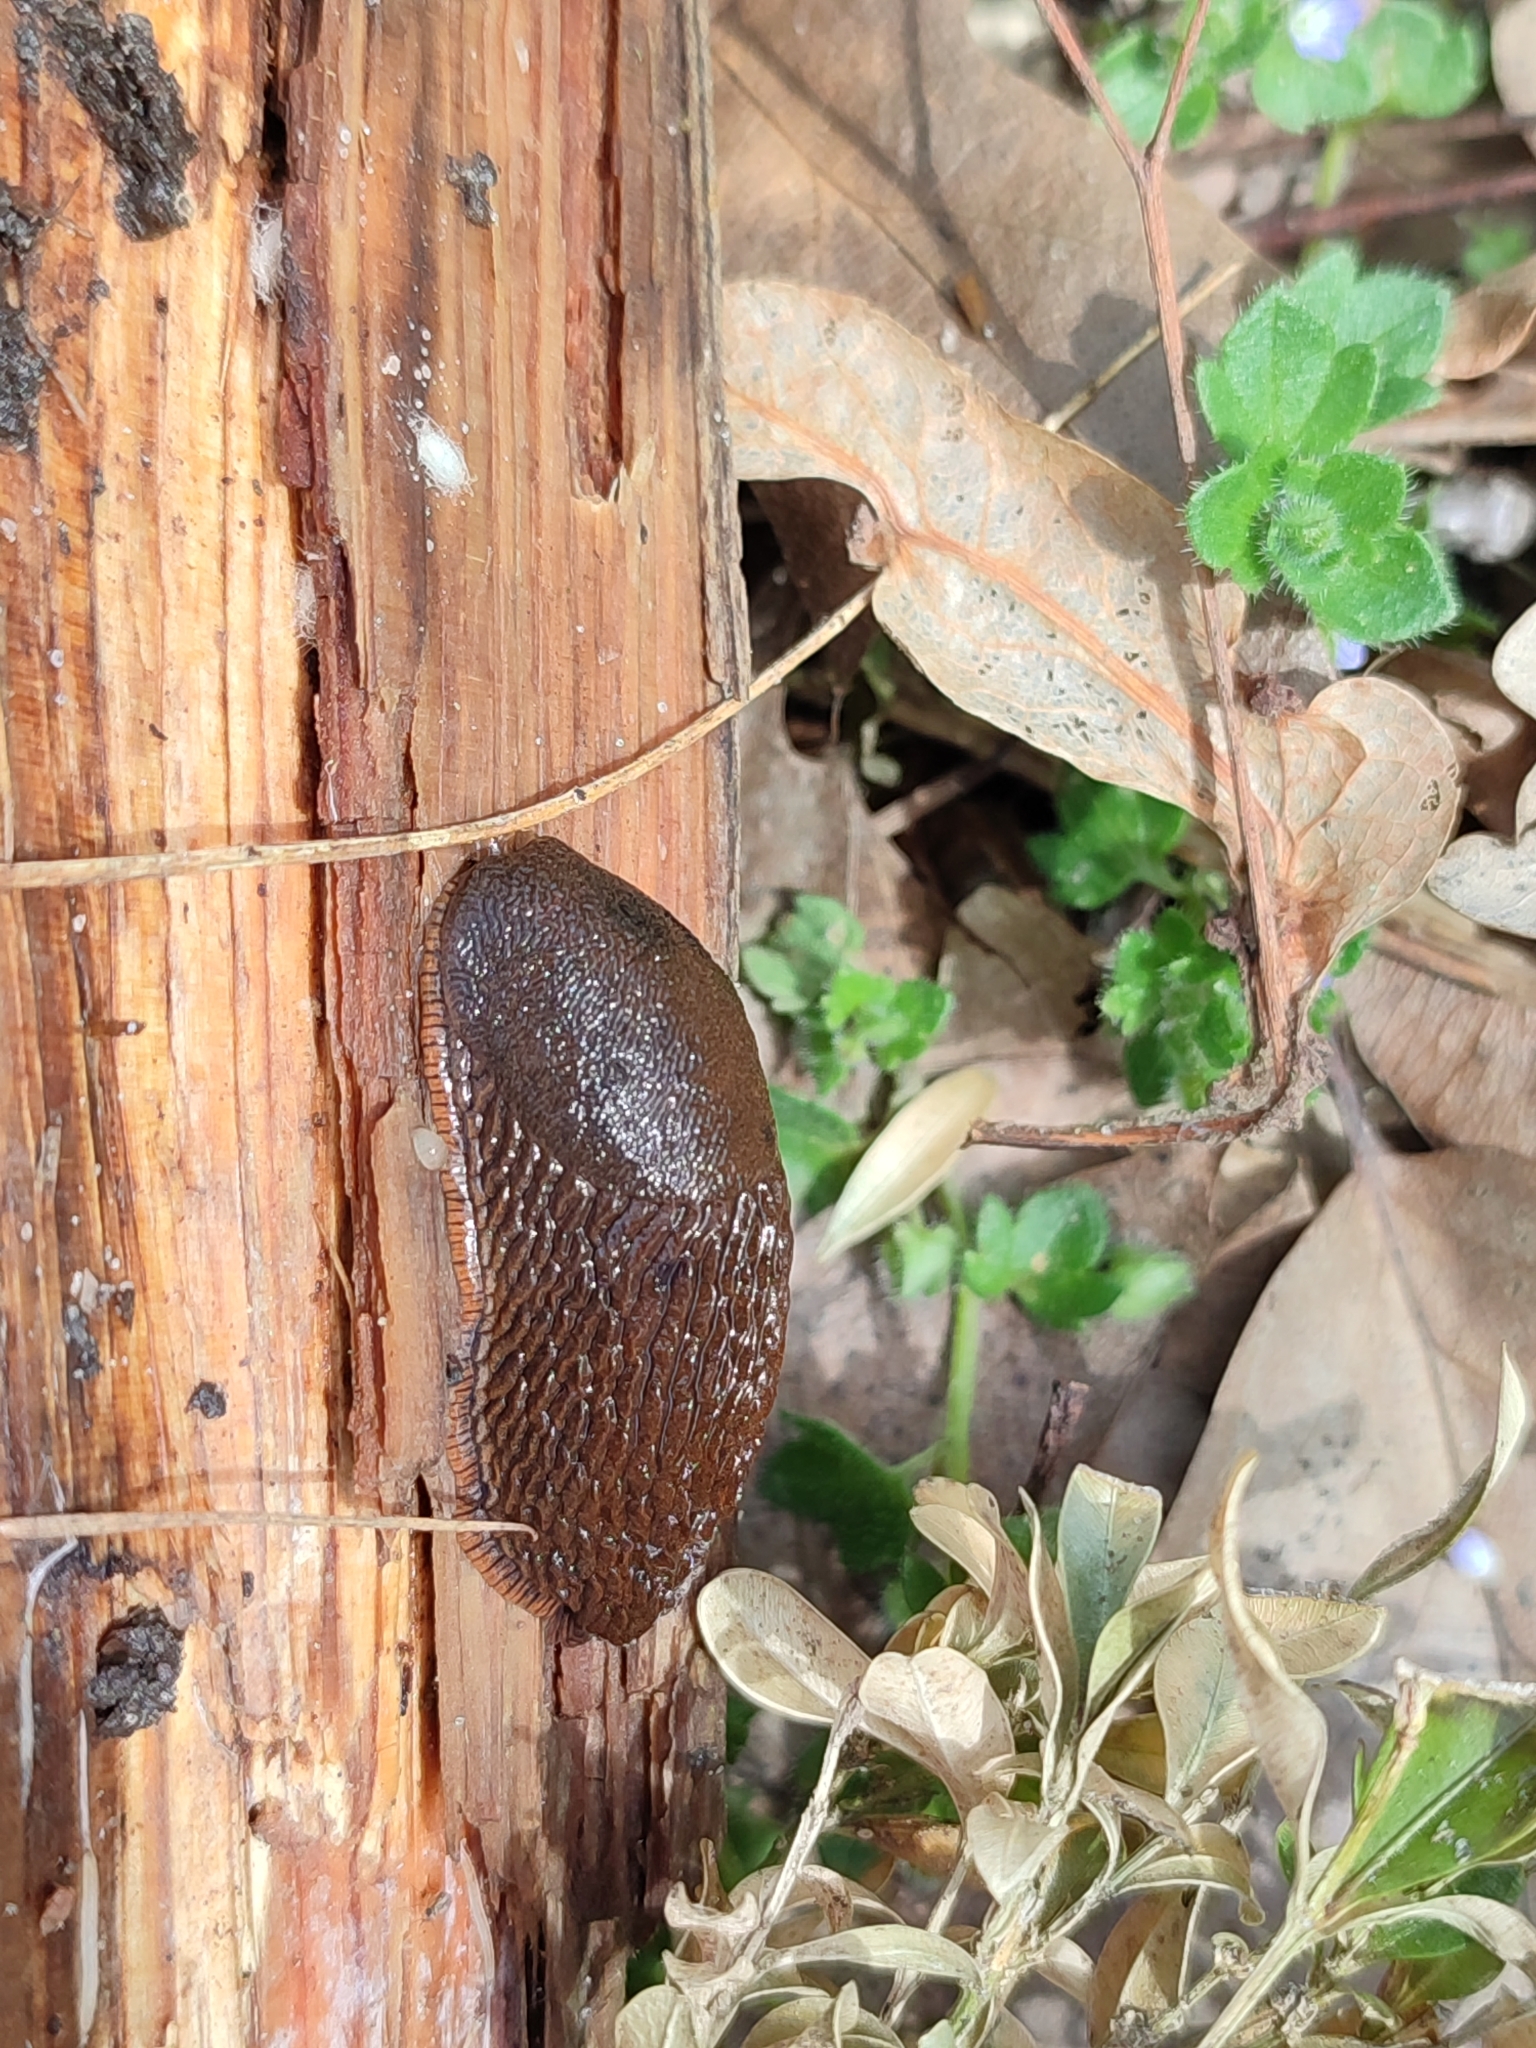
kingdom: Animalia
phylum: Mollusca
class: Gastropoda
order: Stylommatophora
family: Arionidae
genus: Arion
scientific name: Arion vulgaris
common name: Lusitanian slug
